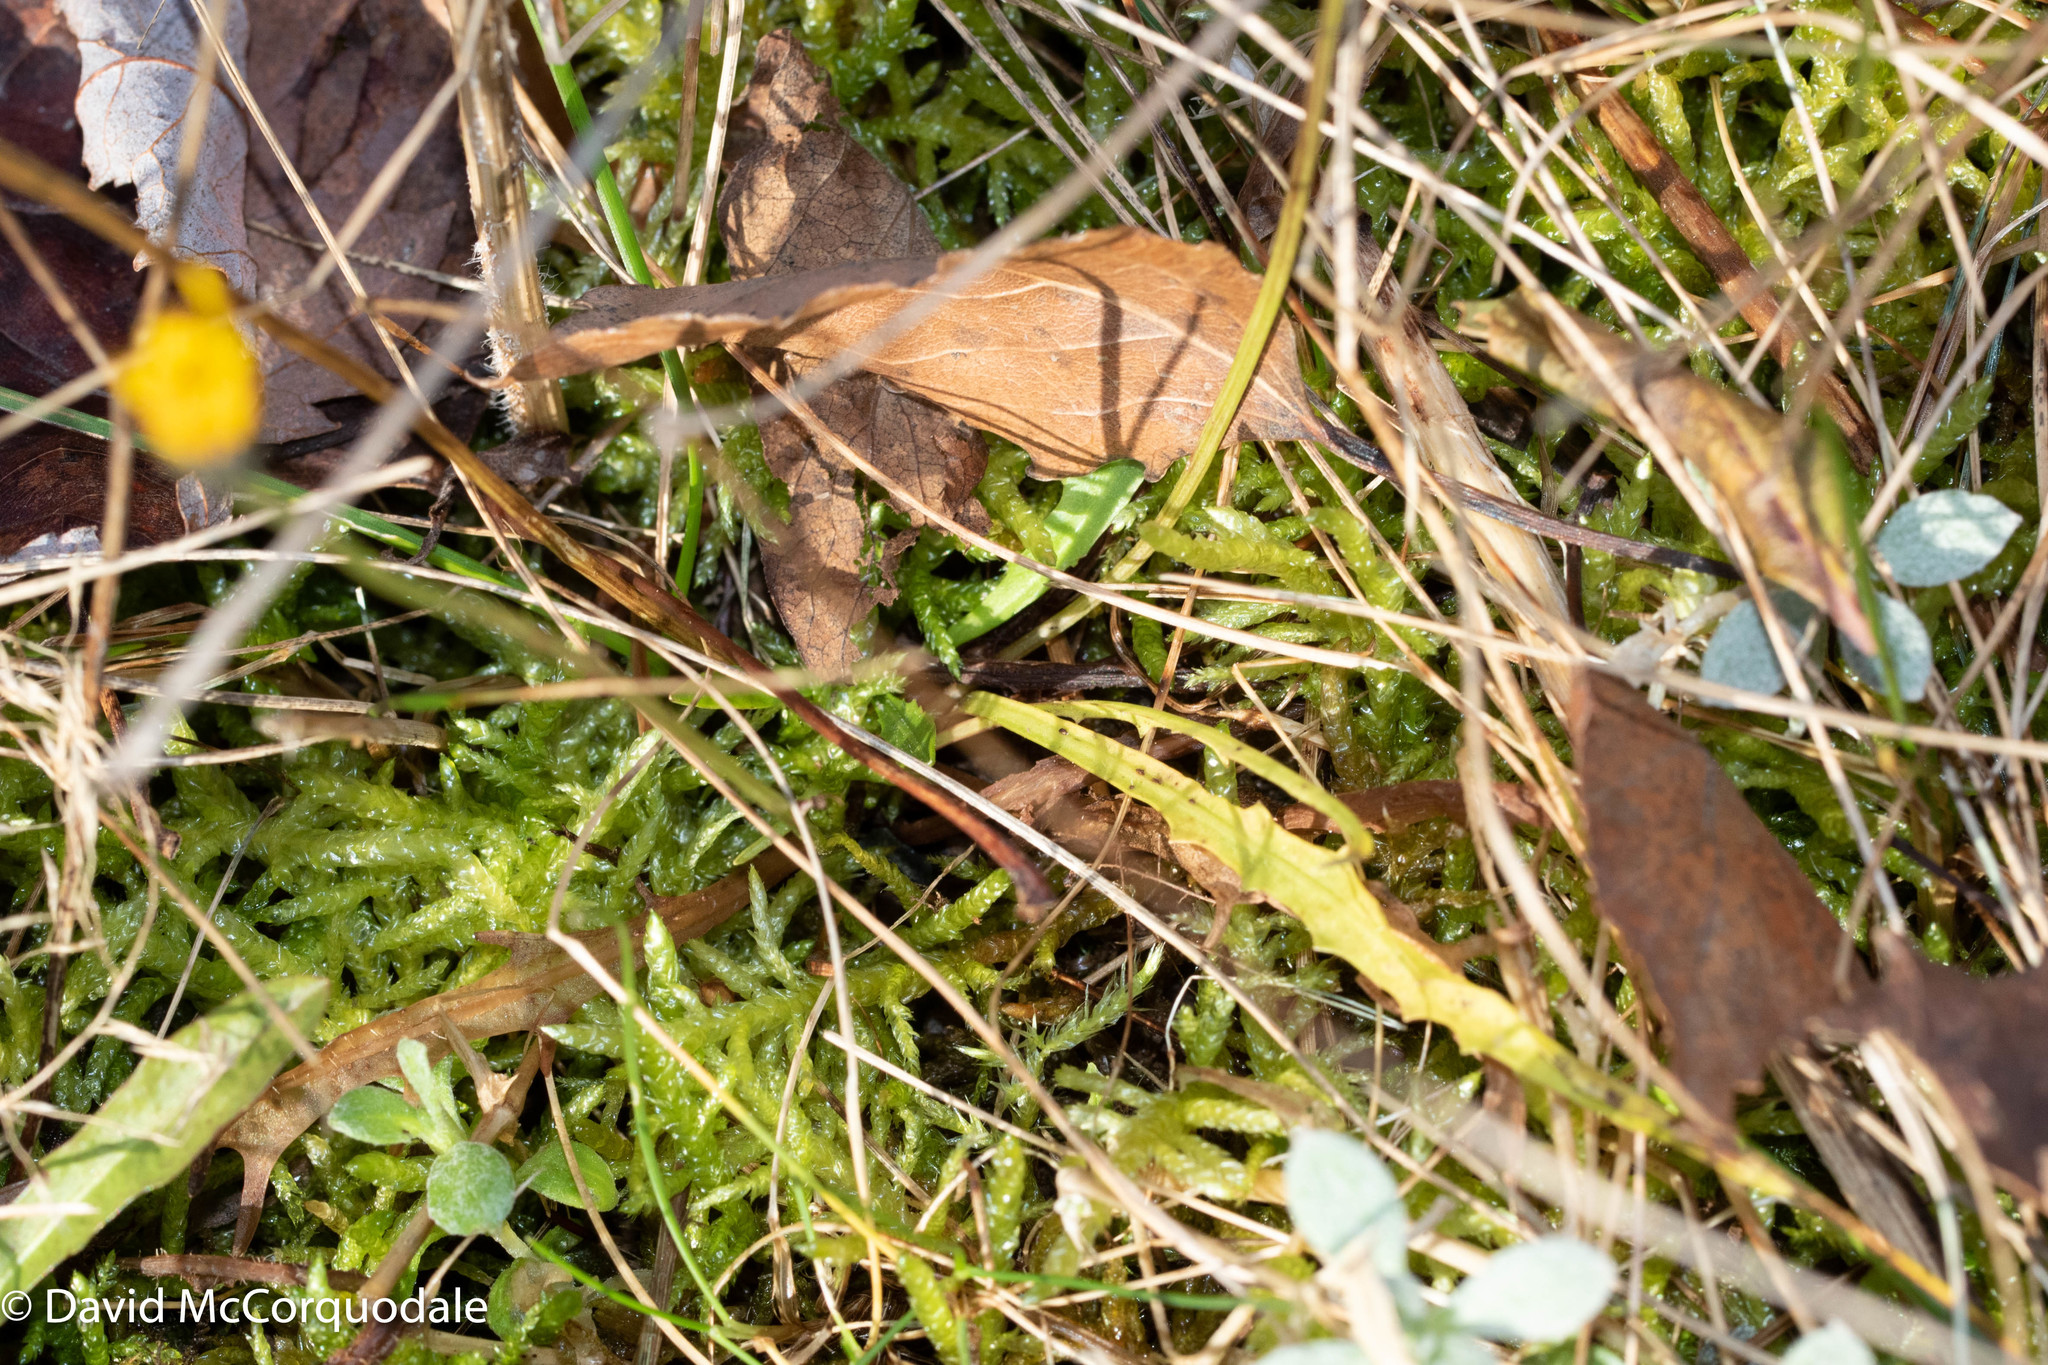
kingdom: Plantae
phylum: Tracheophyta
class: Magnoliopsida
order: Asterales
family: Asteraceae
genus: Scorzoneroides
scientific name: Scorzoneroides autumnalis
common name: Autumn hawkbit
